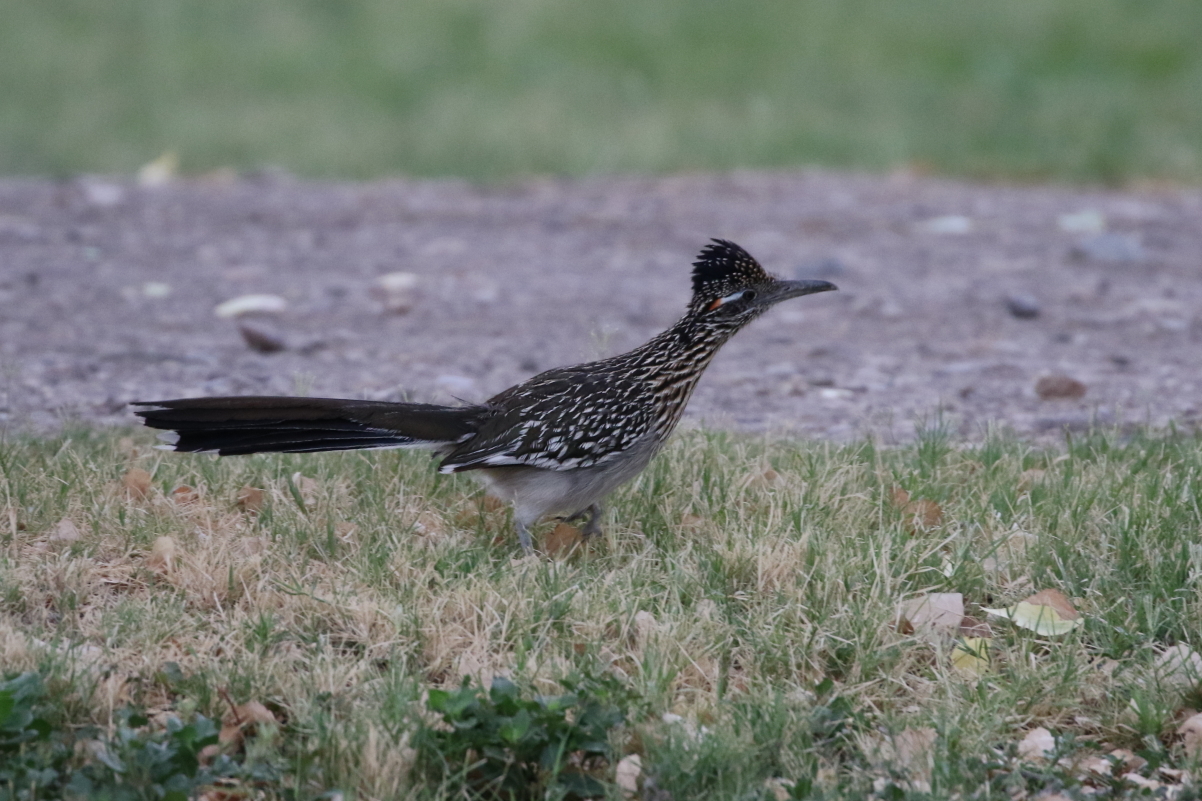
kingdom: Animalia
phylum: Chordata
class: Aves
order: Cuculiformes
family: Cuculidae
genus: Geococcyx
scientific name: Geococcyx californianus
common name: Greater roadrunner
